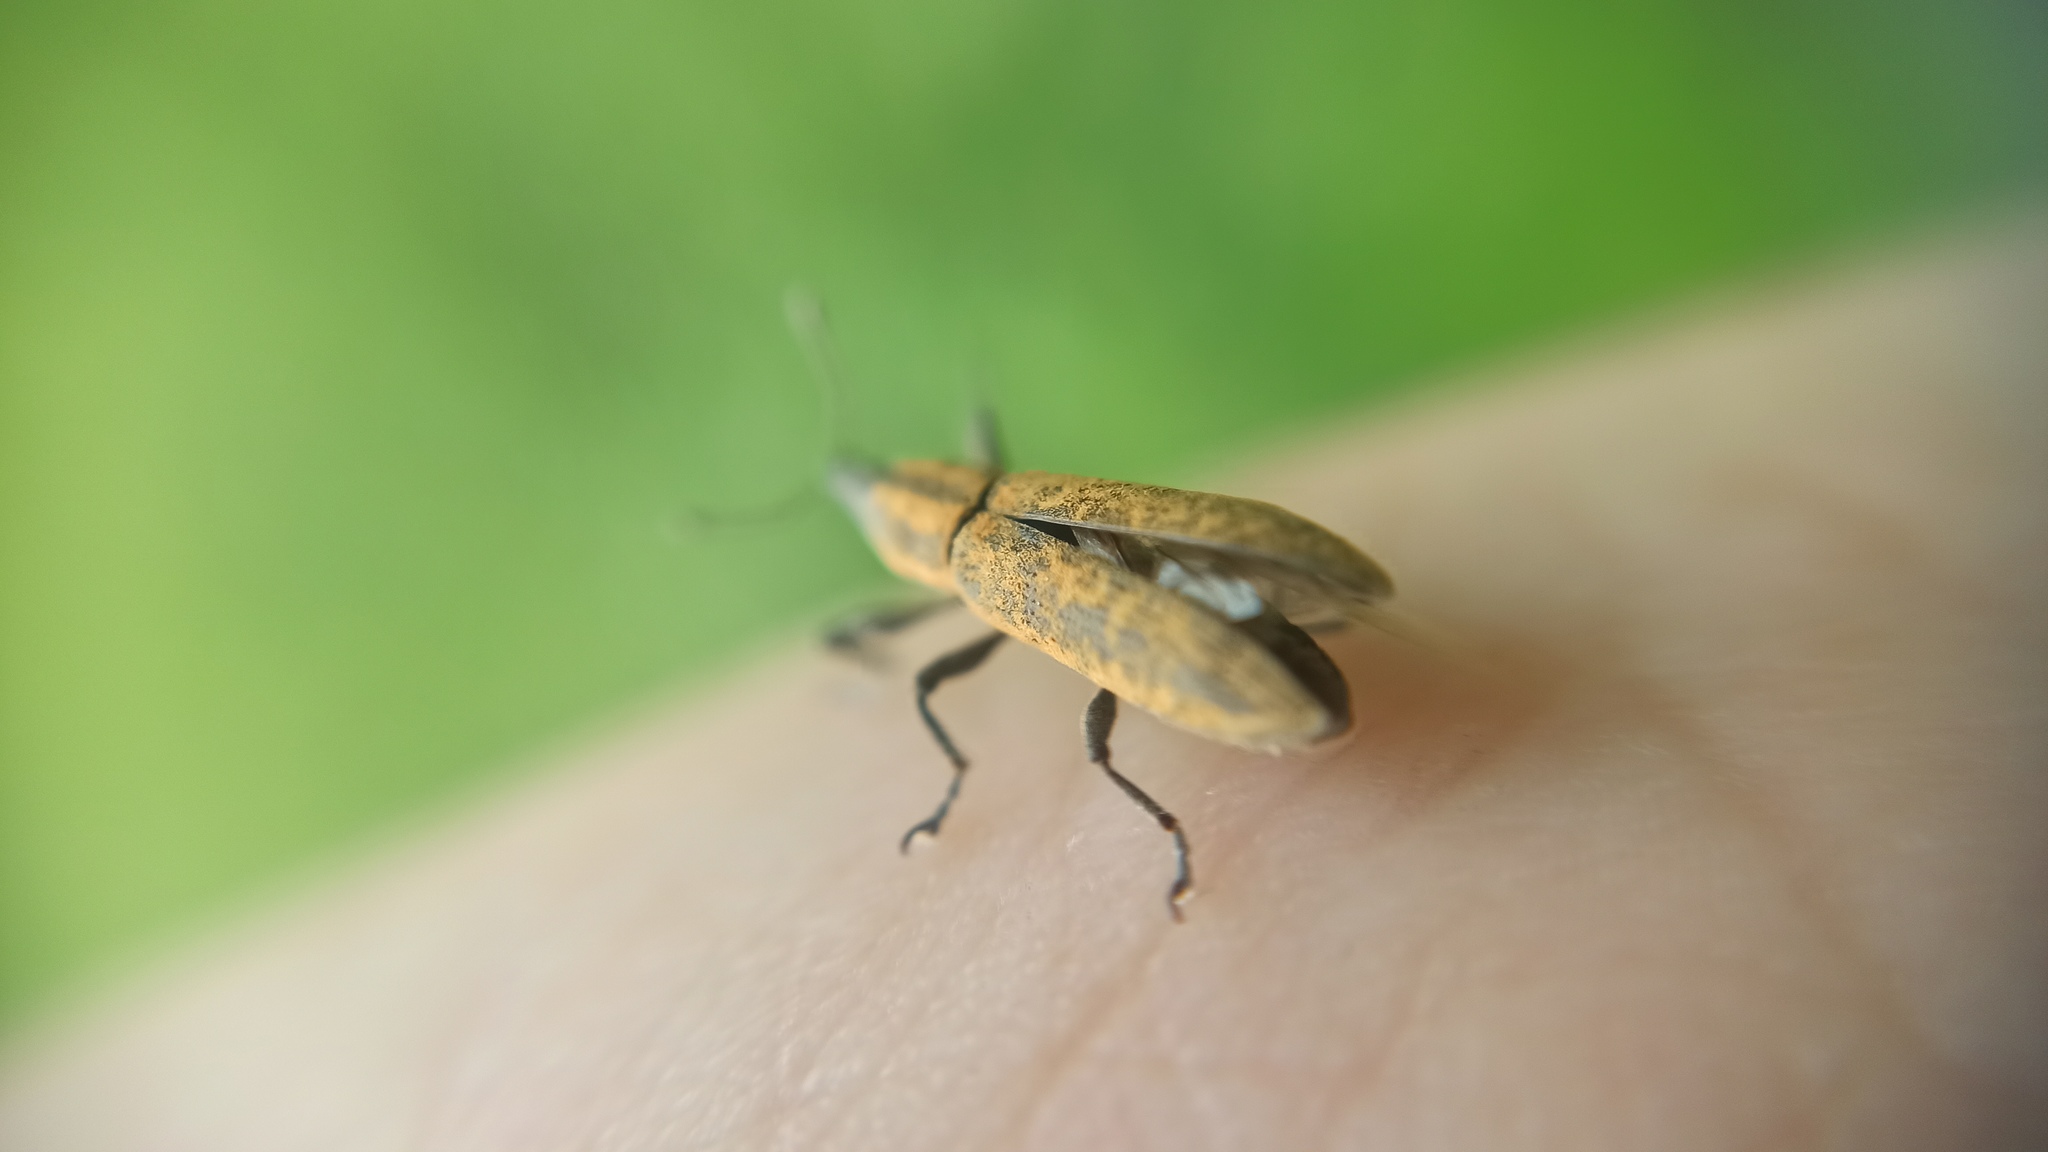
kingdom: Animalia
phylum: Arthropoda
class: Insecta
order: Coleoptera
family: Curculionidae
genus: Lixus
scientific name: Lixus fasciculatus
